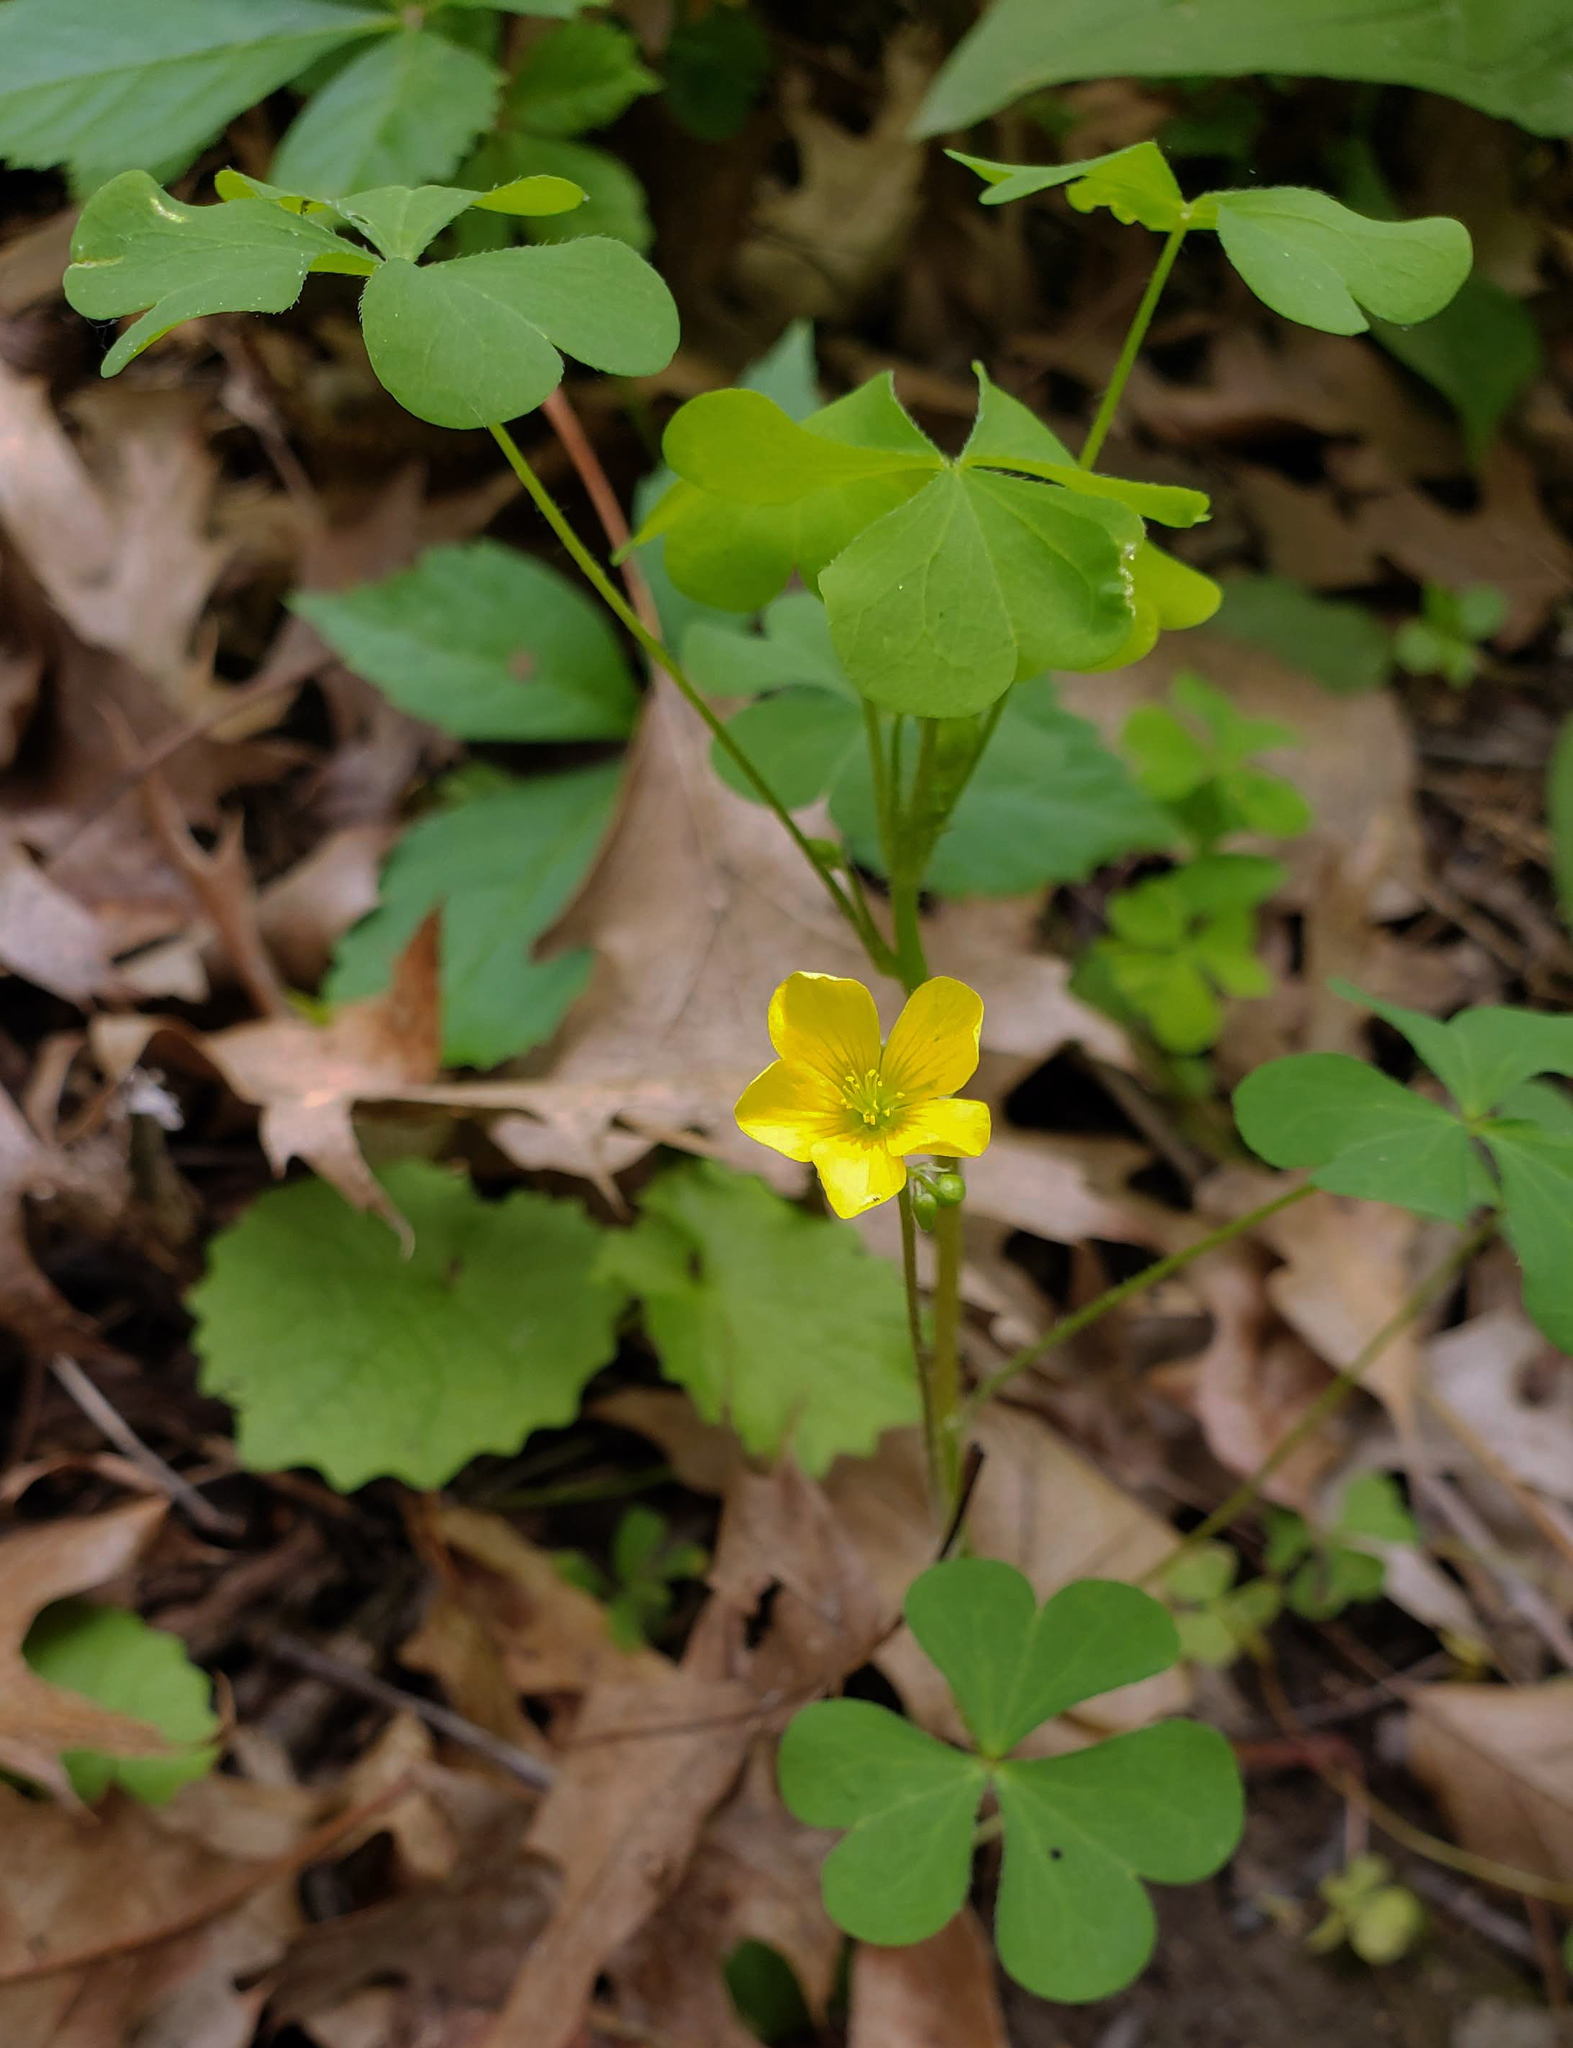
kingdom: Plantae
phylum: Tracheophyta
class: Magnoliopsida
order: Oxalidales
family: Oxalidaceae
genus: Oxalis
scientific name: Oxalis stricta
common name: Upright yellow-sorrel
